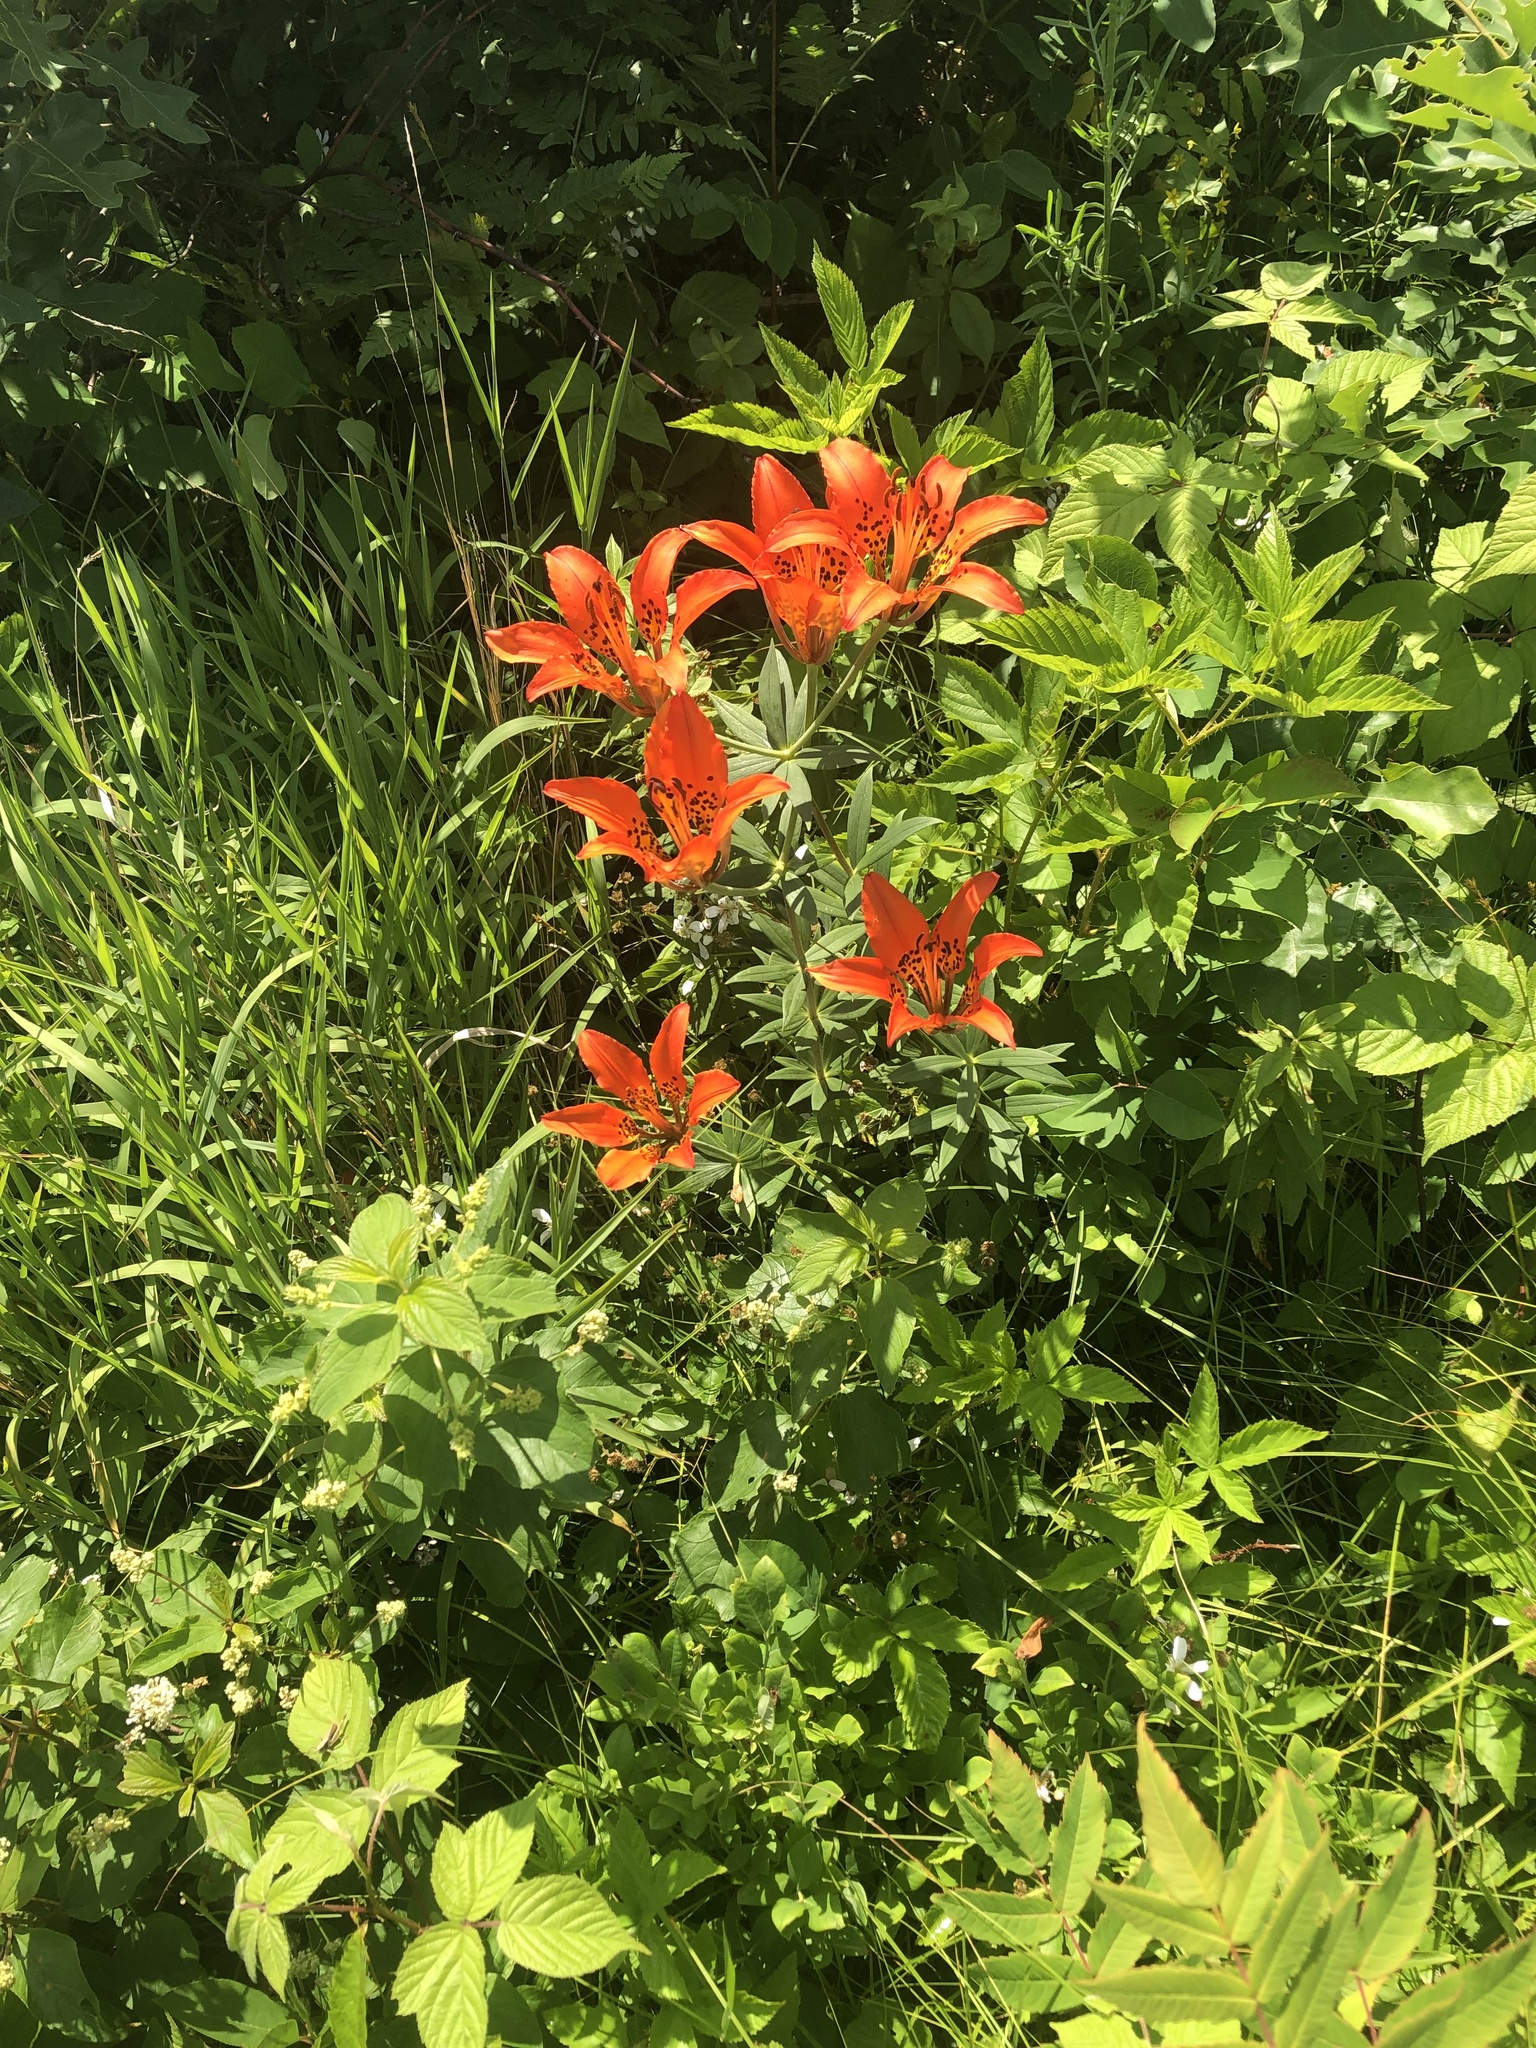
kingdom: Plantae
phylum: Tracheophyta
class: Liliopsida
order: Liliales
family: Liliaceae
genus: Lilium
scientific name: Lilium philadelphicum
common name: Red lily
